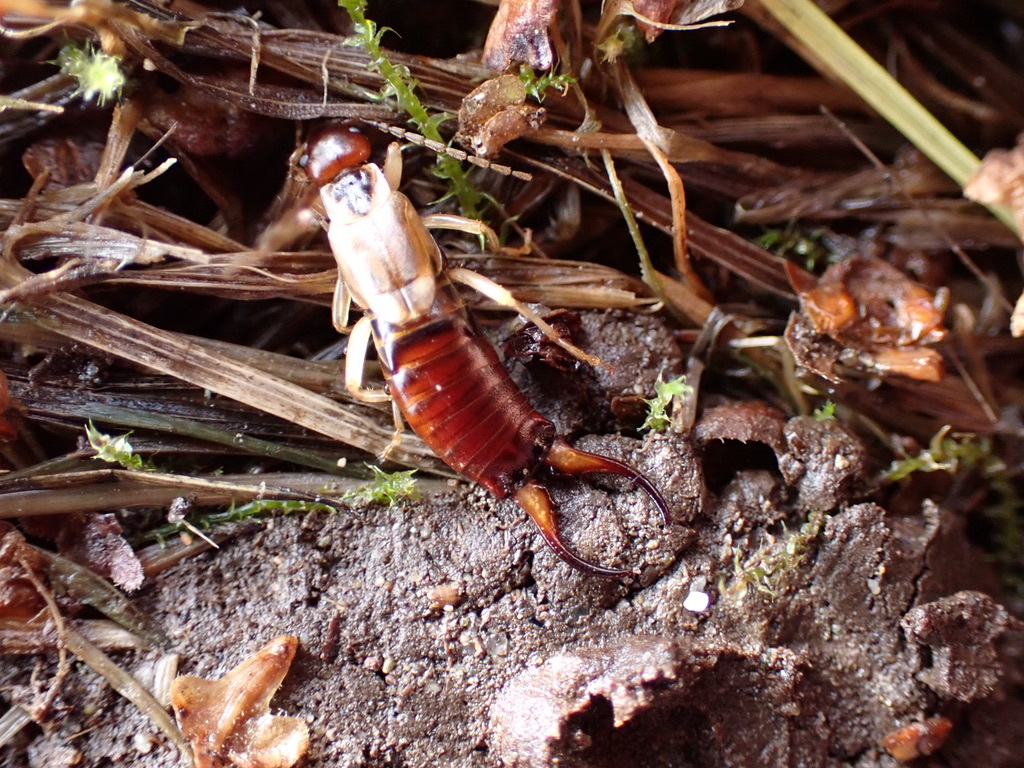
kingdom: Animalia
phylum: Arthropoda
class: Insecta
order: Dermaptera
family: Forficulidae
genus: Forficula
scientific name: Forficula
